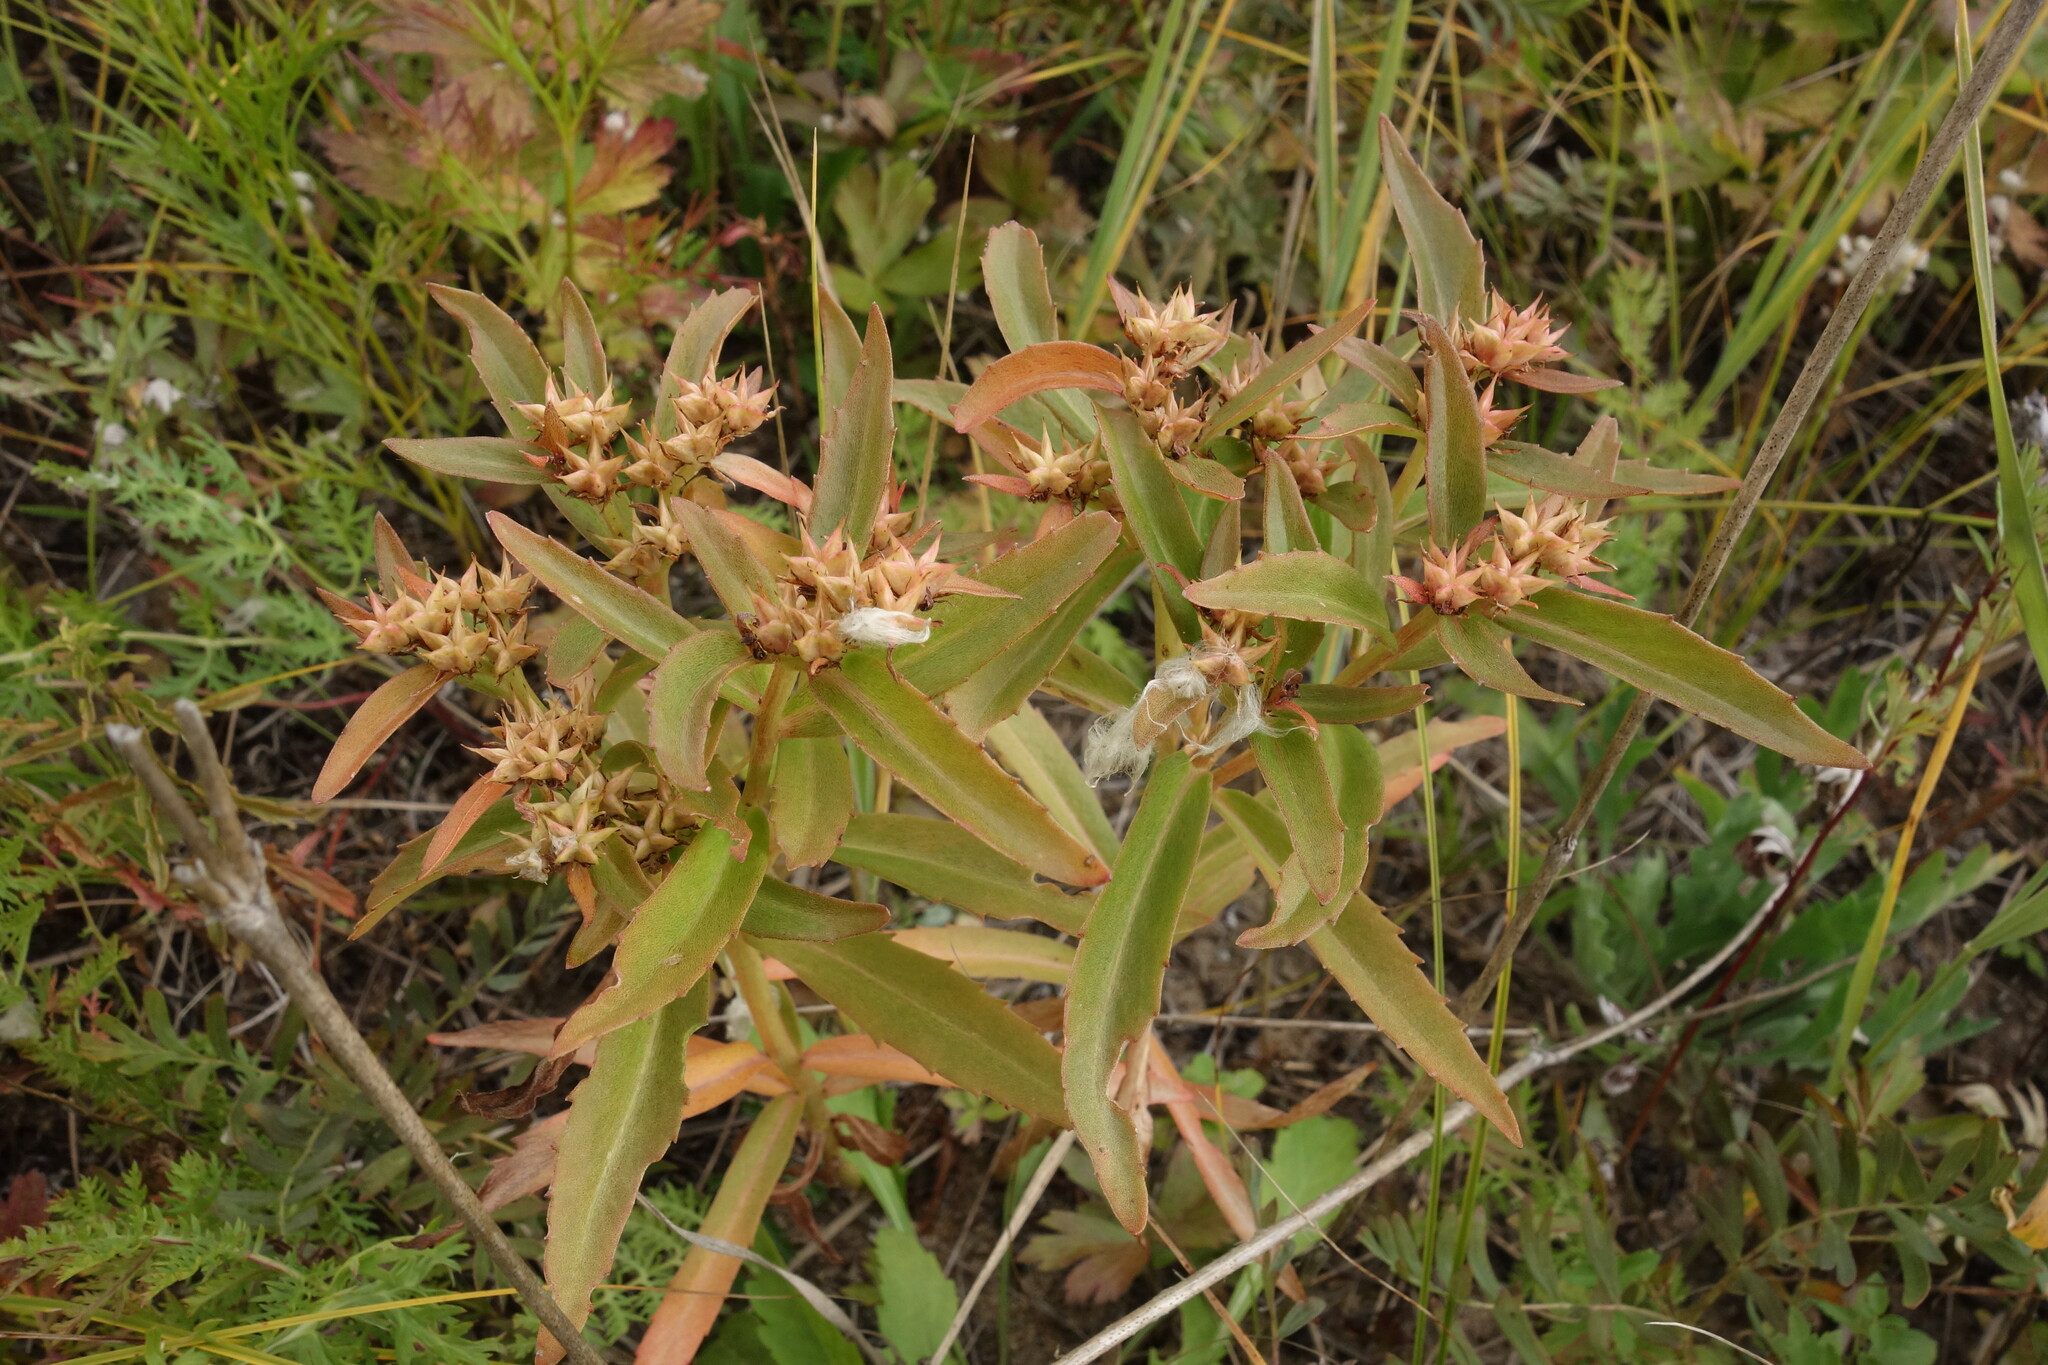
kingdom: Plantae
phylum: Tracheophyta
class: Magnoliopsida
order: Saxifragales
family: Crassulaceae
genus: Phedimus
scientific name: Phedimus aizoon
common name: Orpin aizoon
